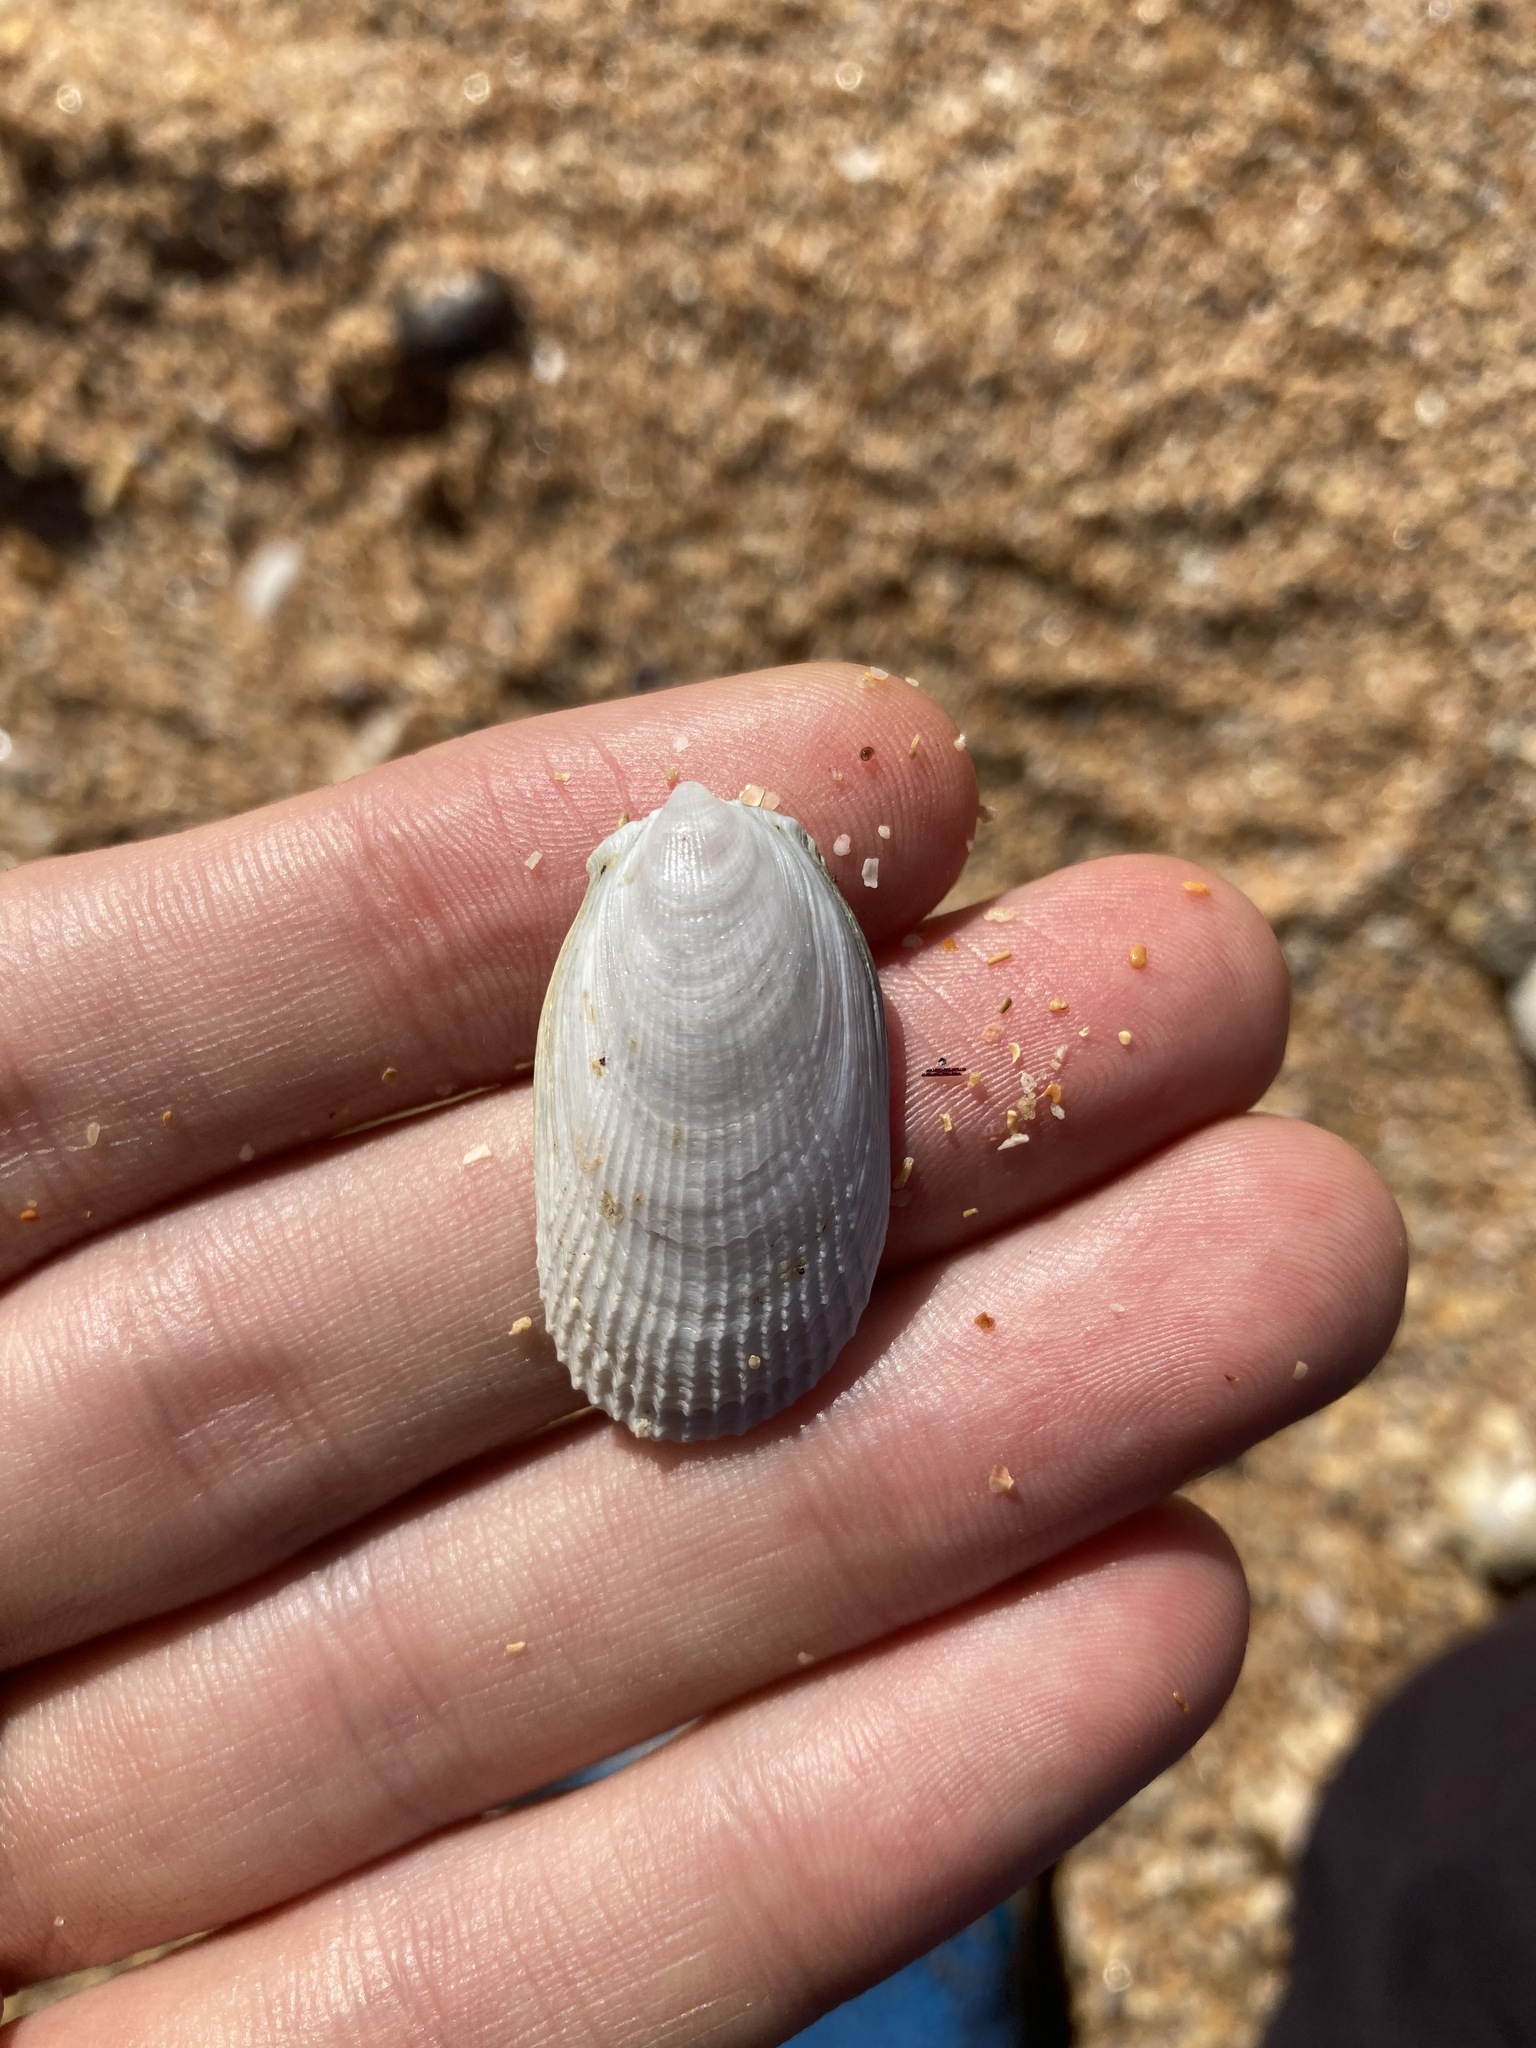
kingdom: Animalia
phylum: Mollusca
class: Bivalvia
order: Limida
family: Limidae
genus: Limatula
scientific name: Limatula strangei
